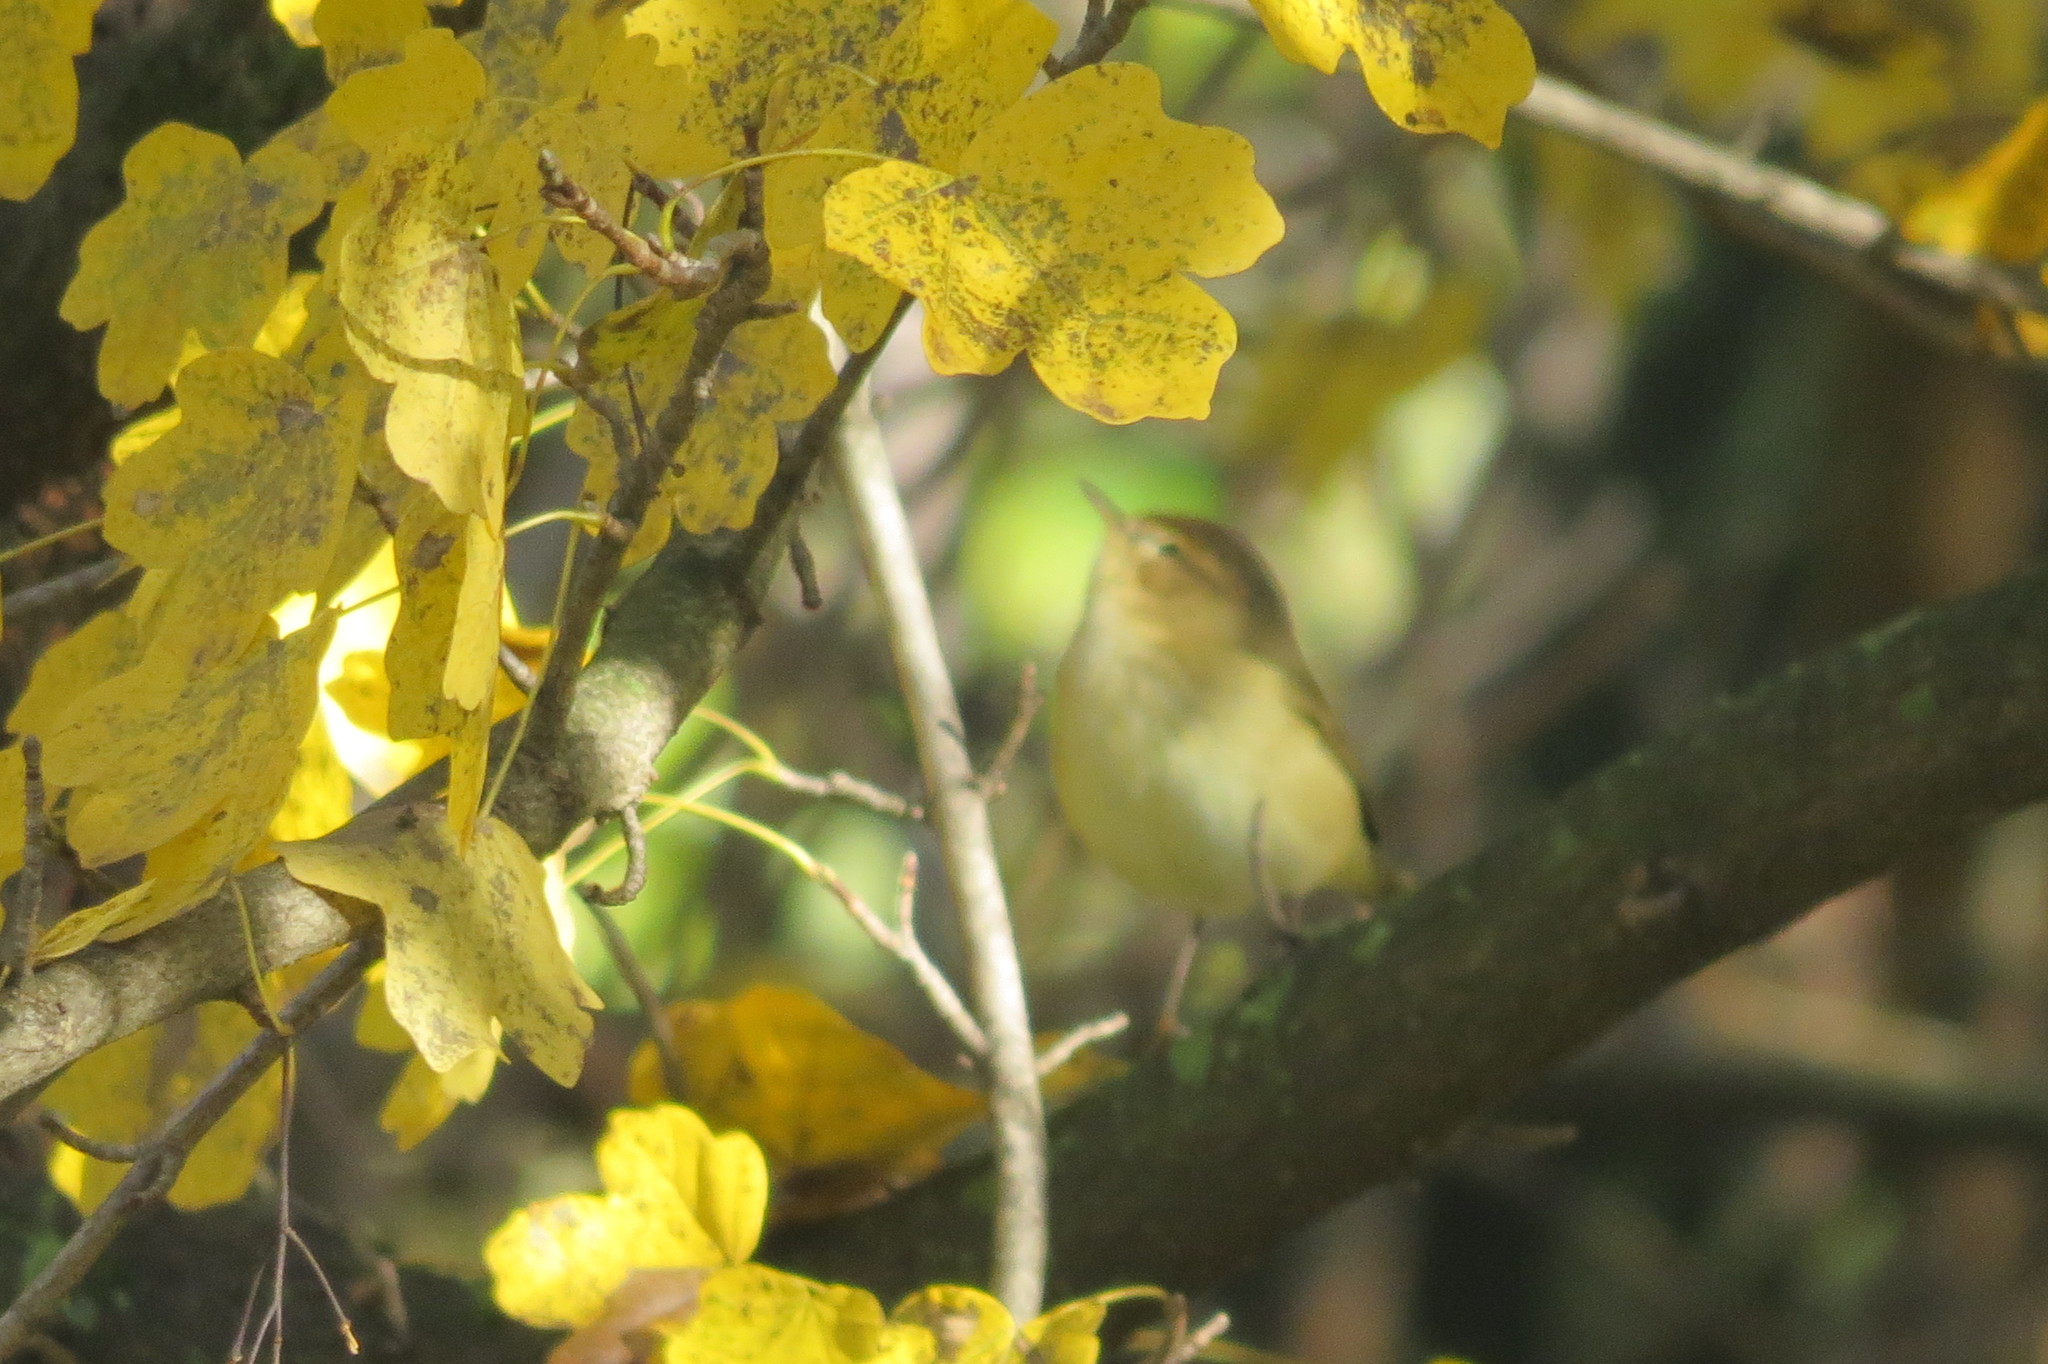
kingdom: Animalia
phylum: Chordata
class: Aves
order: Passeriformes
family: Phylloscopidae
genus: Phylloscopus
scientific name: Phylloscopus collybita
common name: Common chiffchaff
